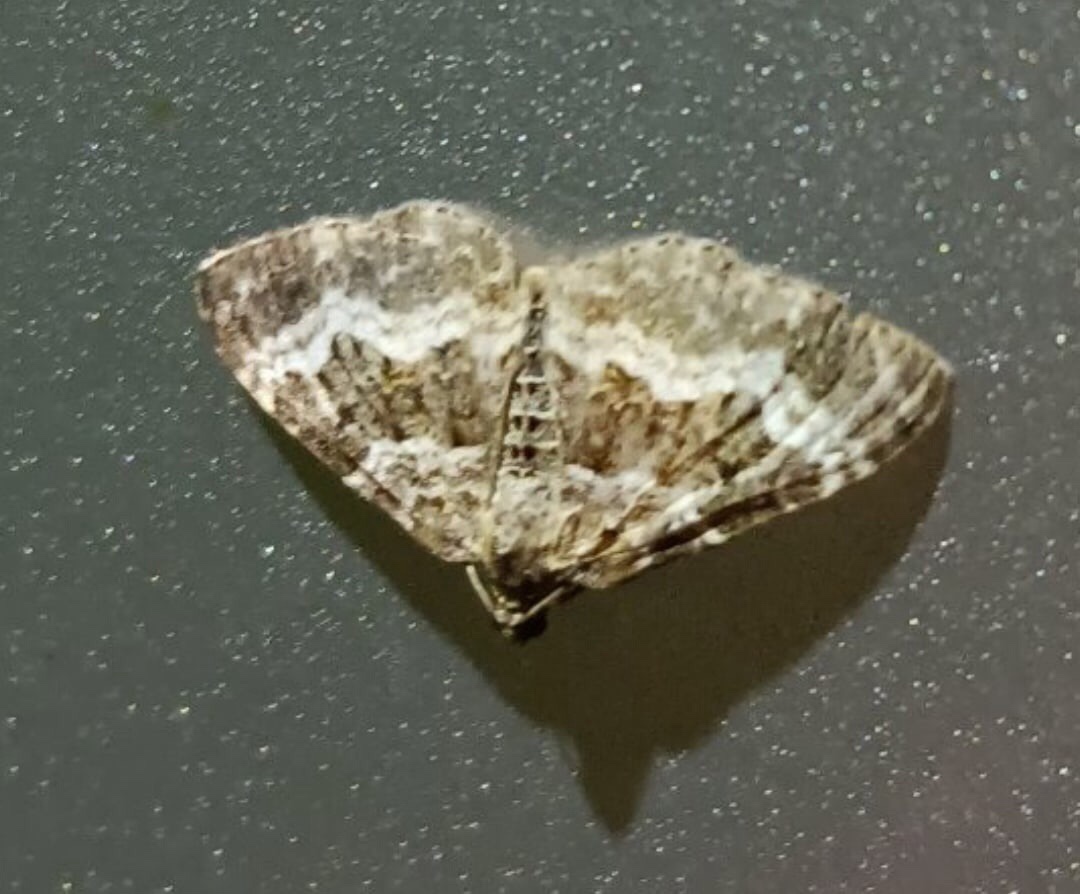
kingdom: Animalia
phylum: Arthropoda
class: Insecta
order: Lepidoptera
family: Geometridae
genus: Epirrhoe
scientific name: Epirrhoe alternata
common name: Common carpet
